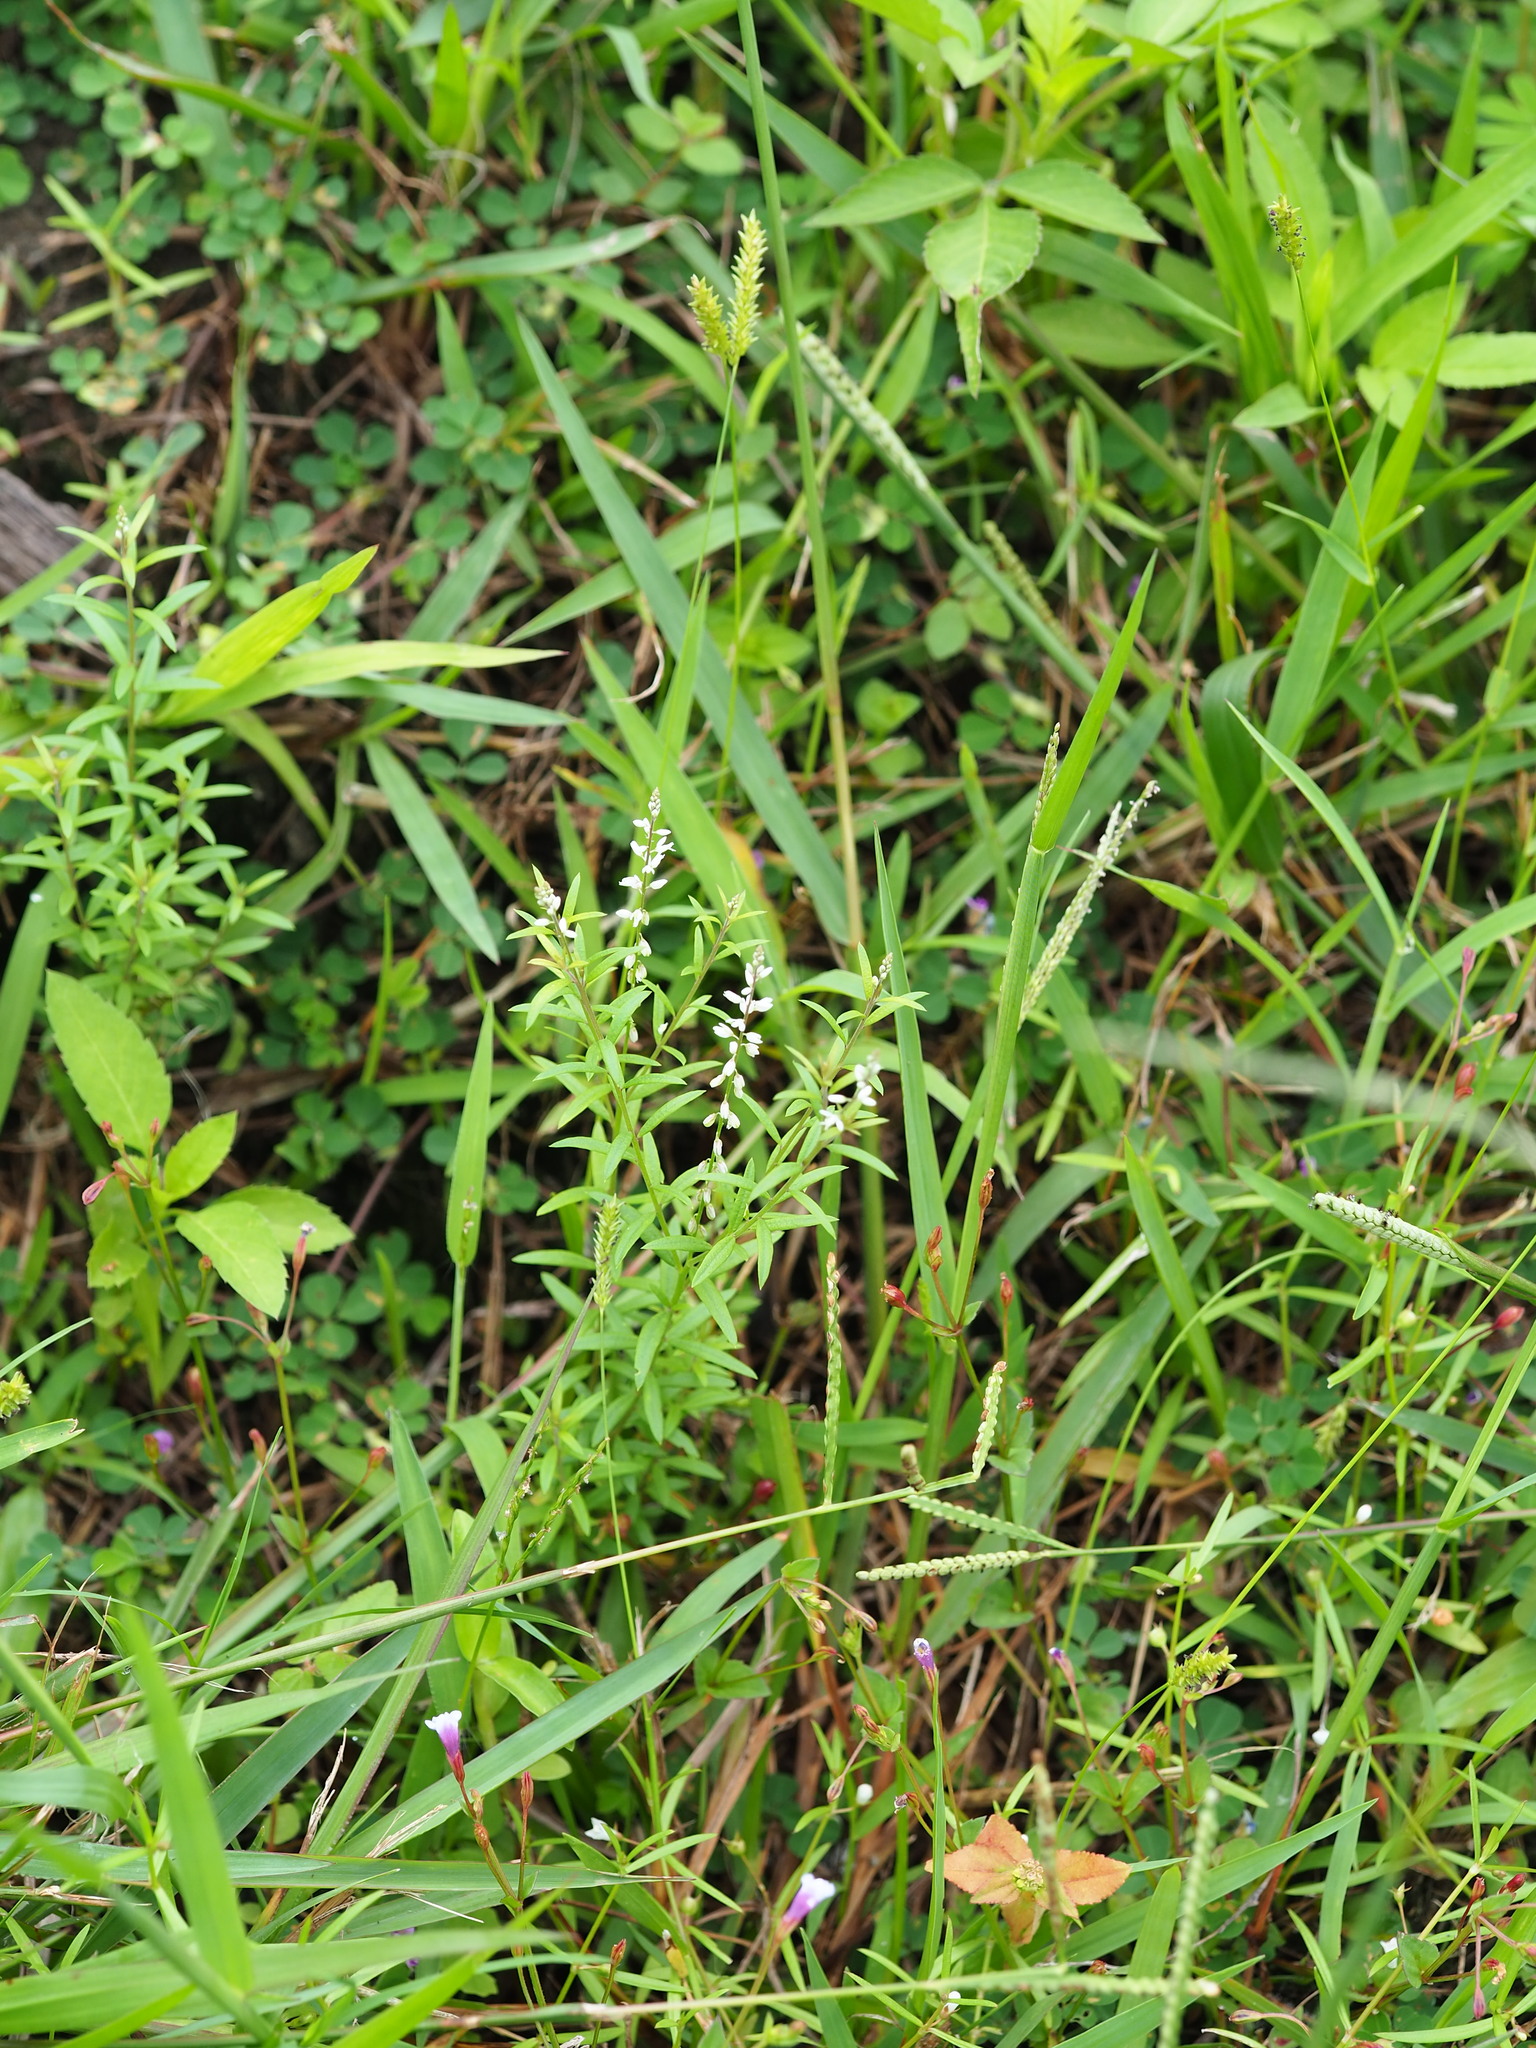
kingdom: Plantae
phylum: Tracheophyta
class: Magnoliopsida
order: Fabales
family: Polygalaceae
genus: Polygala
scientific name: Polygala paniculata
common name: Orosne
